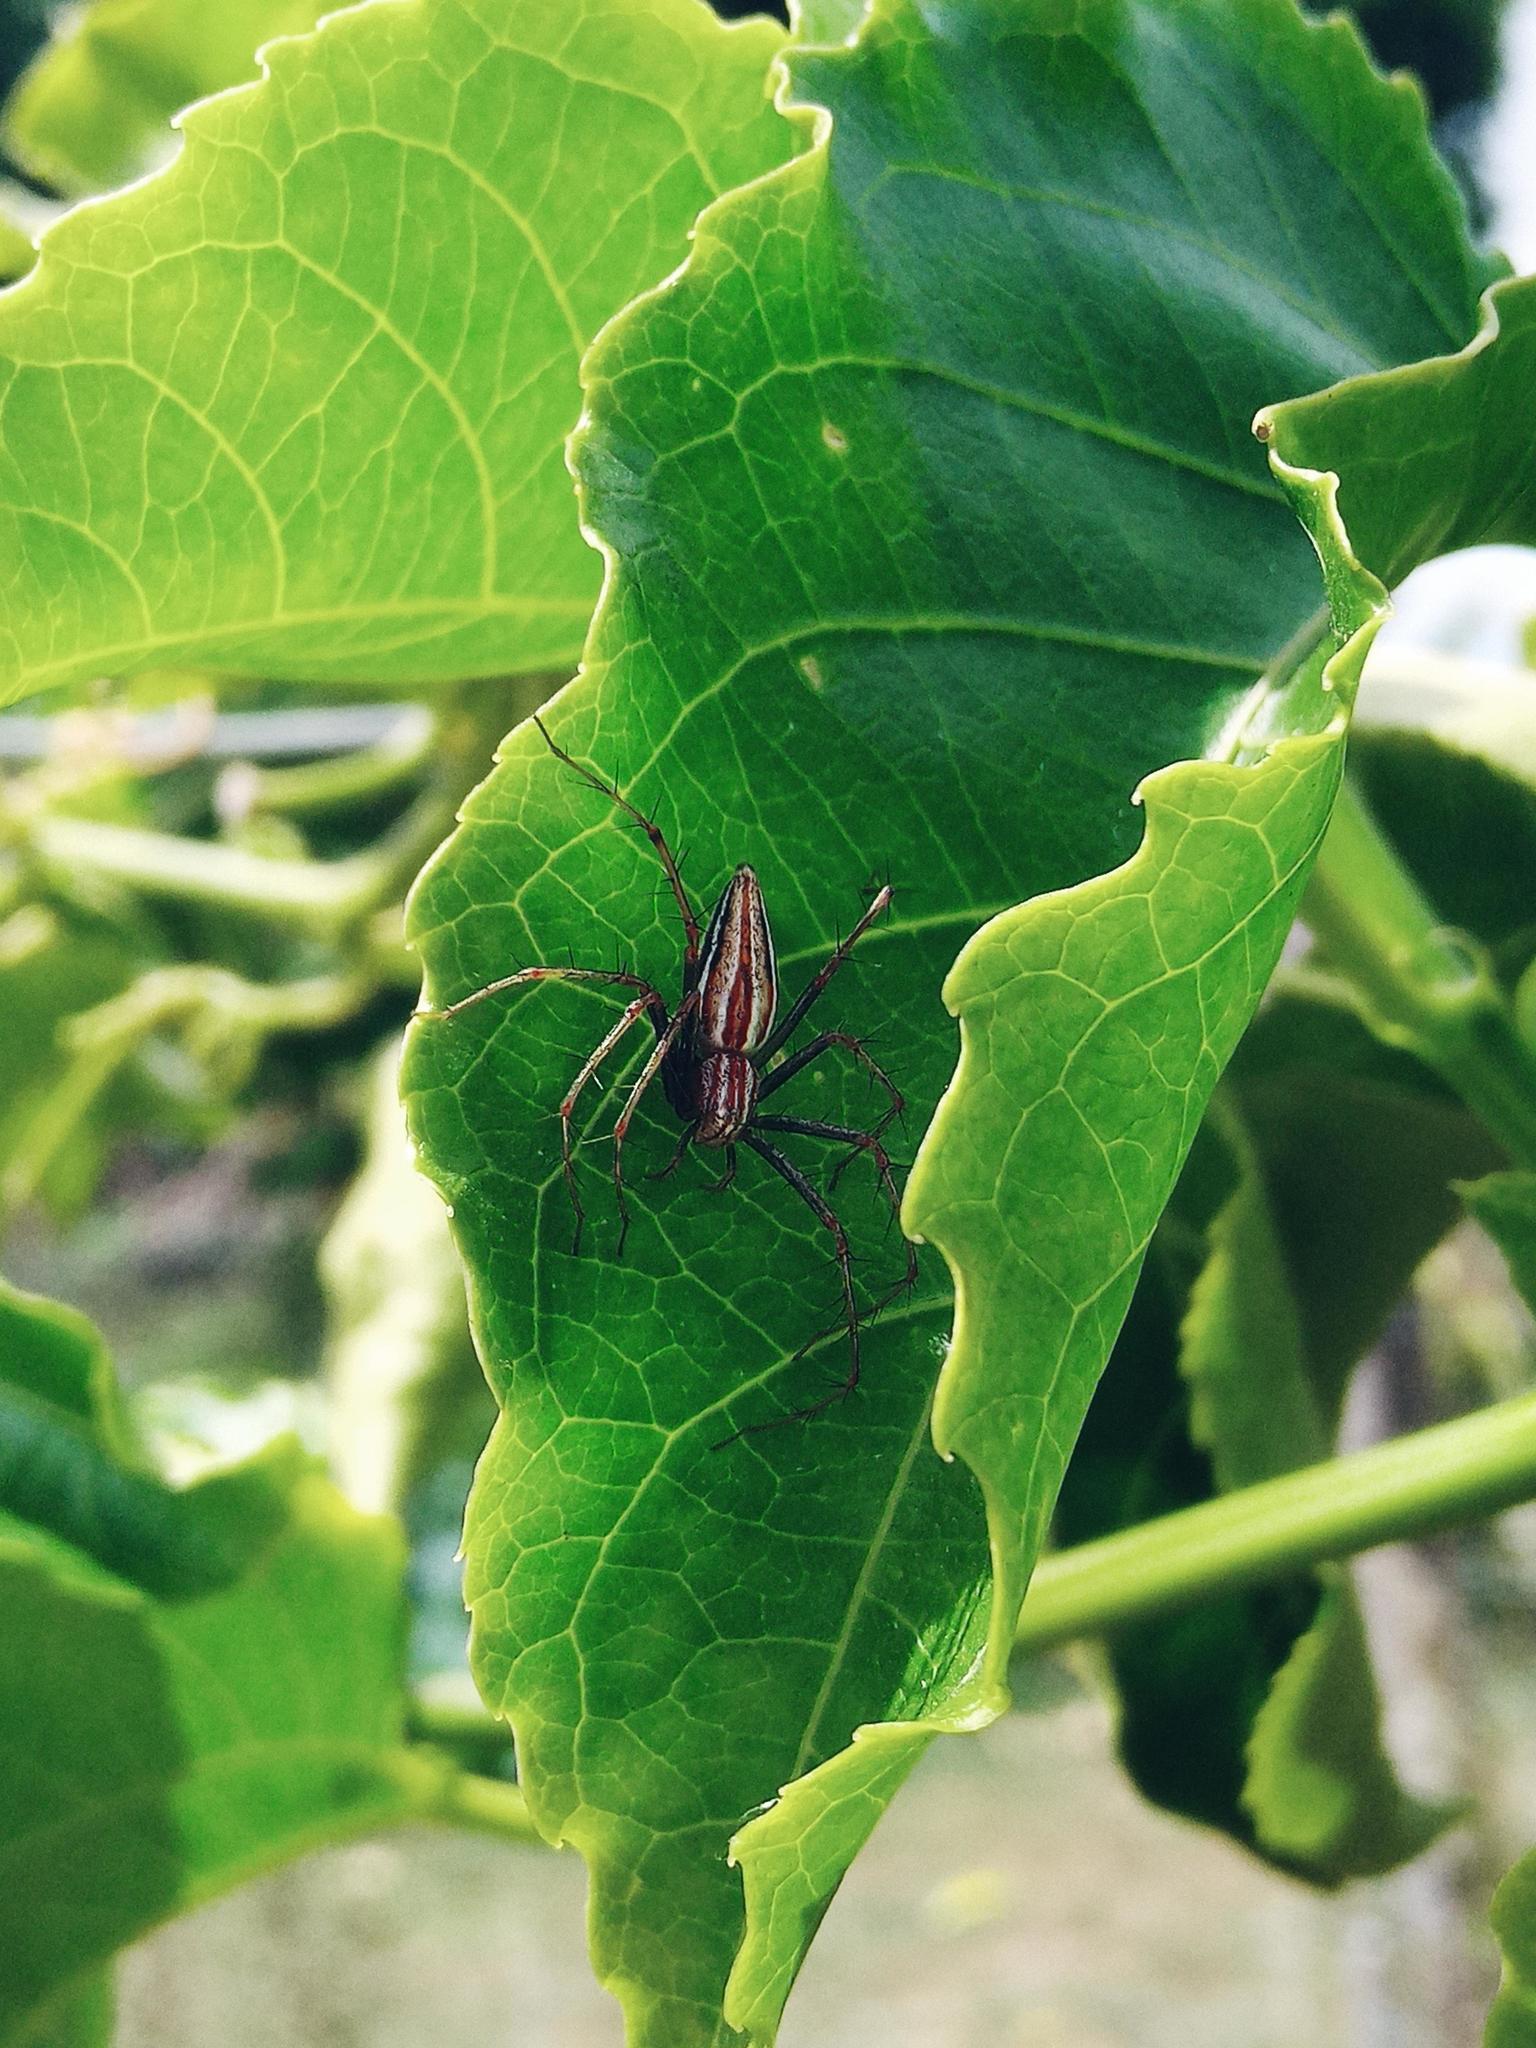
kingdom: Animalia
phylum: Arthropoda
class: Arachnida
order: Araneae
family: Oxyopidae
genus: Oxyopes
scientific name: Oxyopes macilentus
